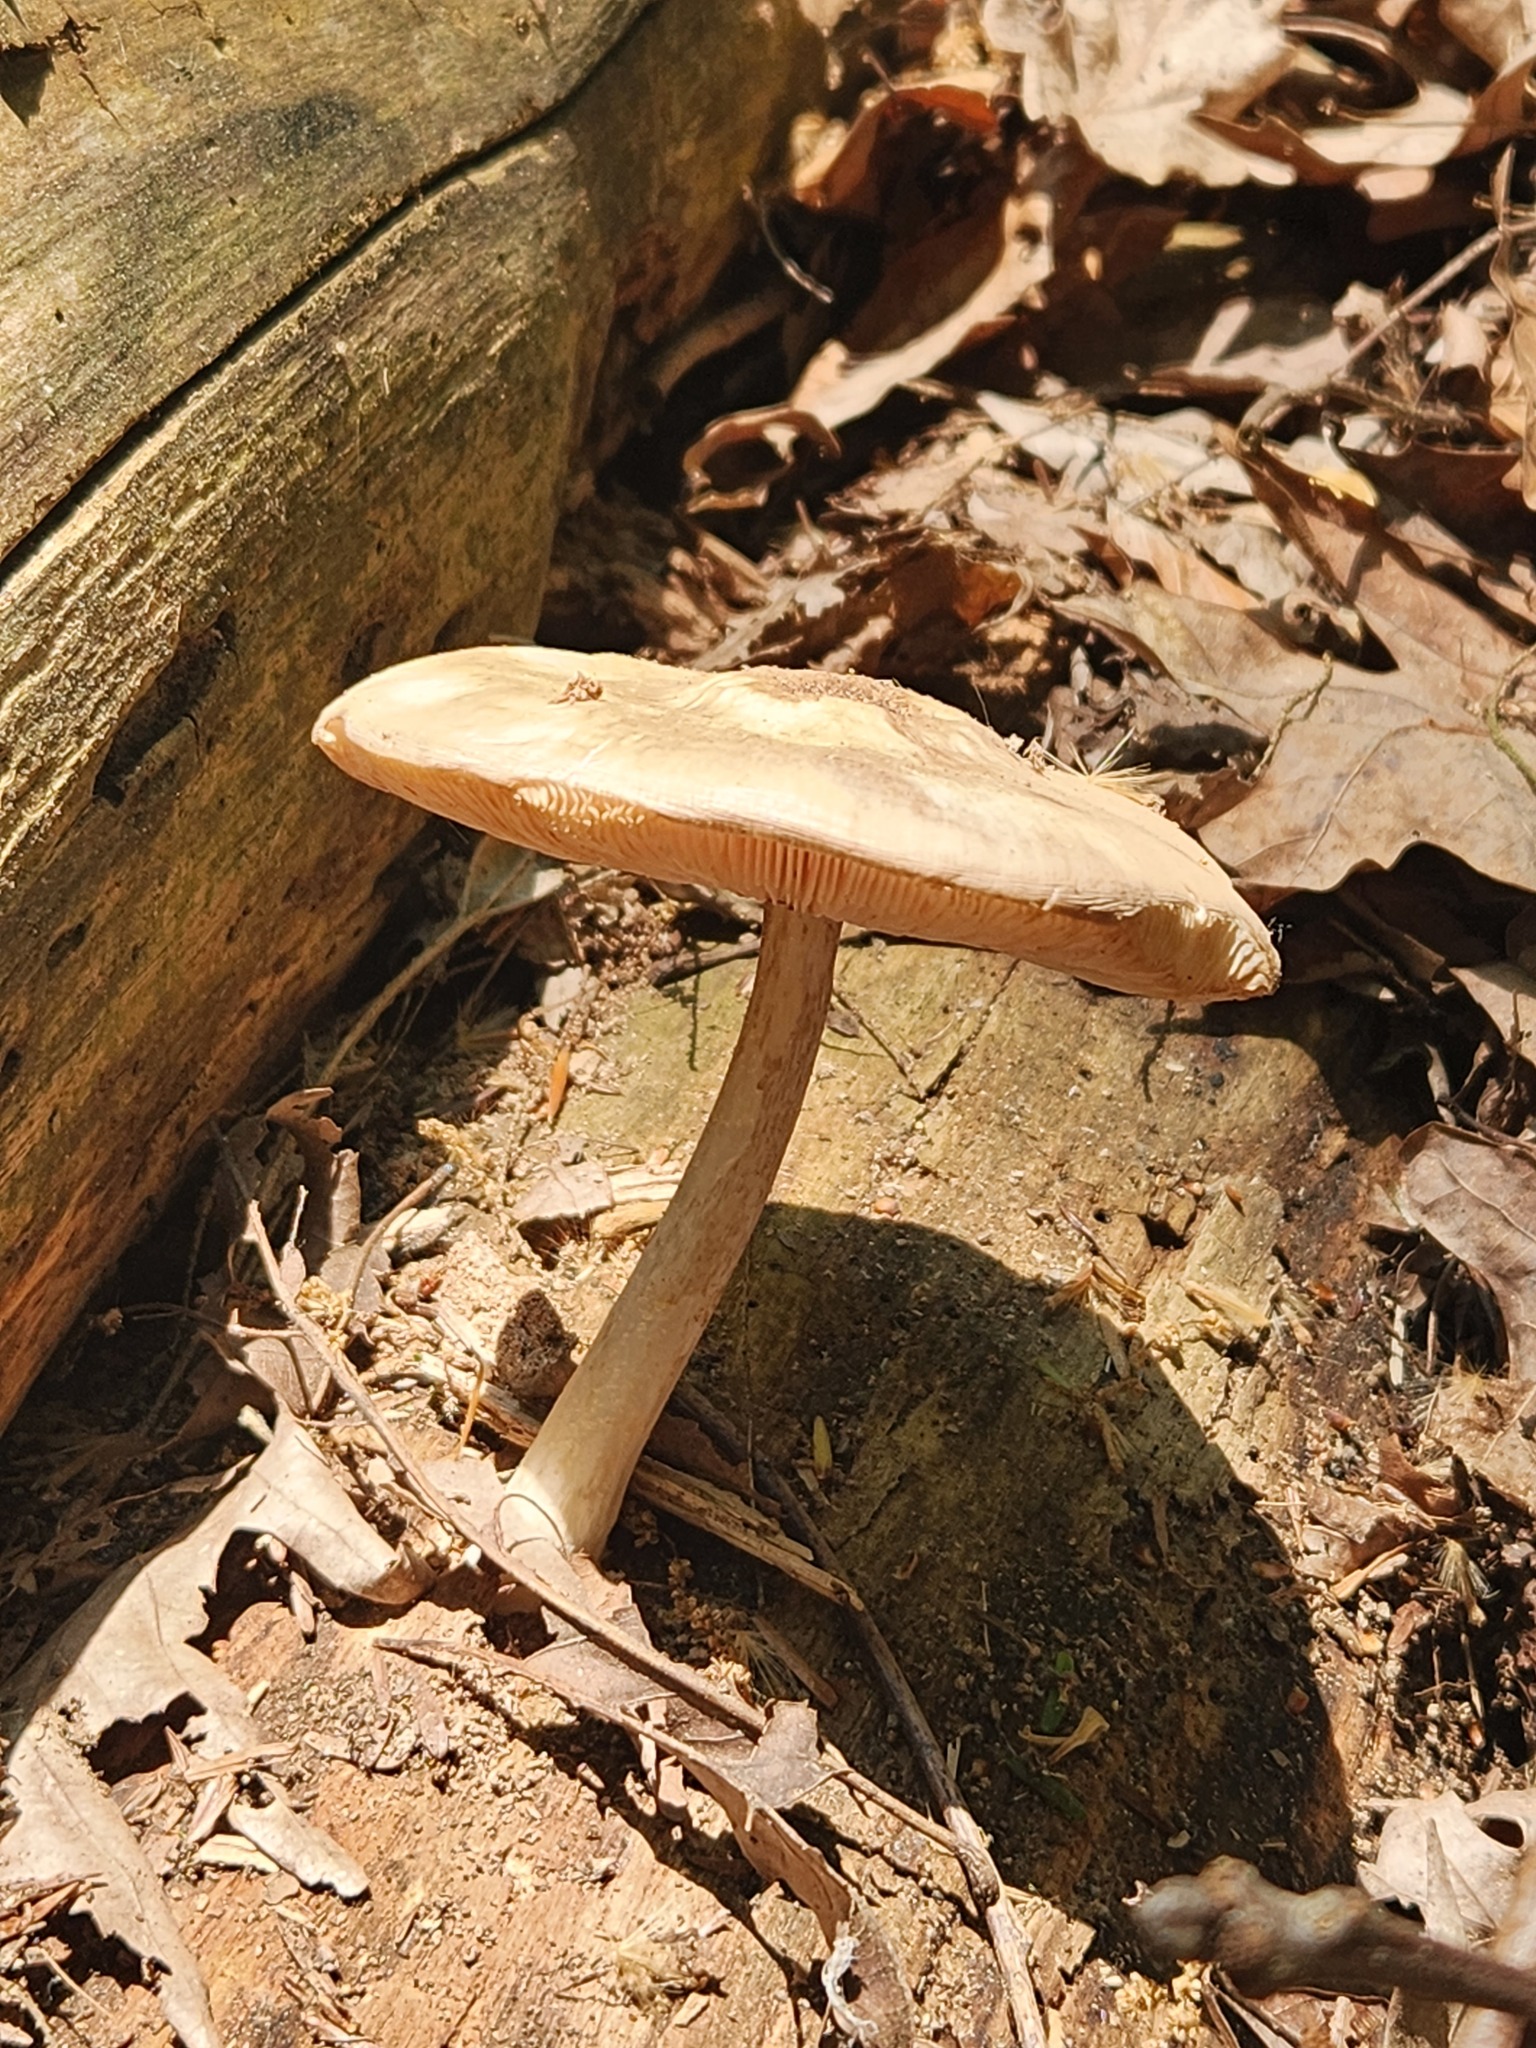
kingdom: Fungi
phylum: Basidiomycota
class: Agaricomycetes
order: Agaricales
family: Pluteaceae
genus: Pluteus
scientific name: Pluteus petasatus
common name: Scaly shield
